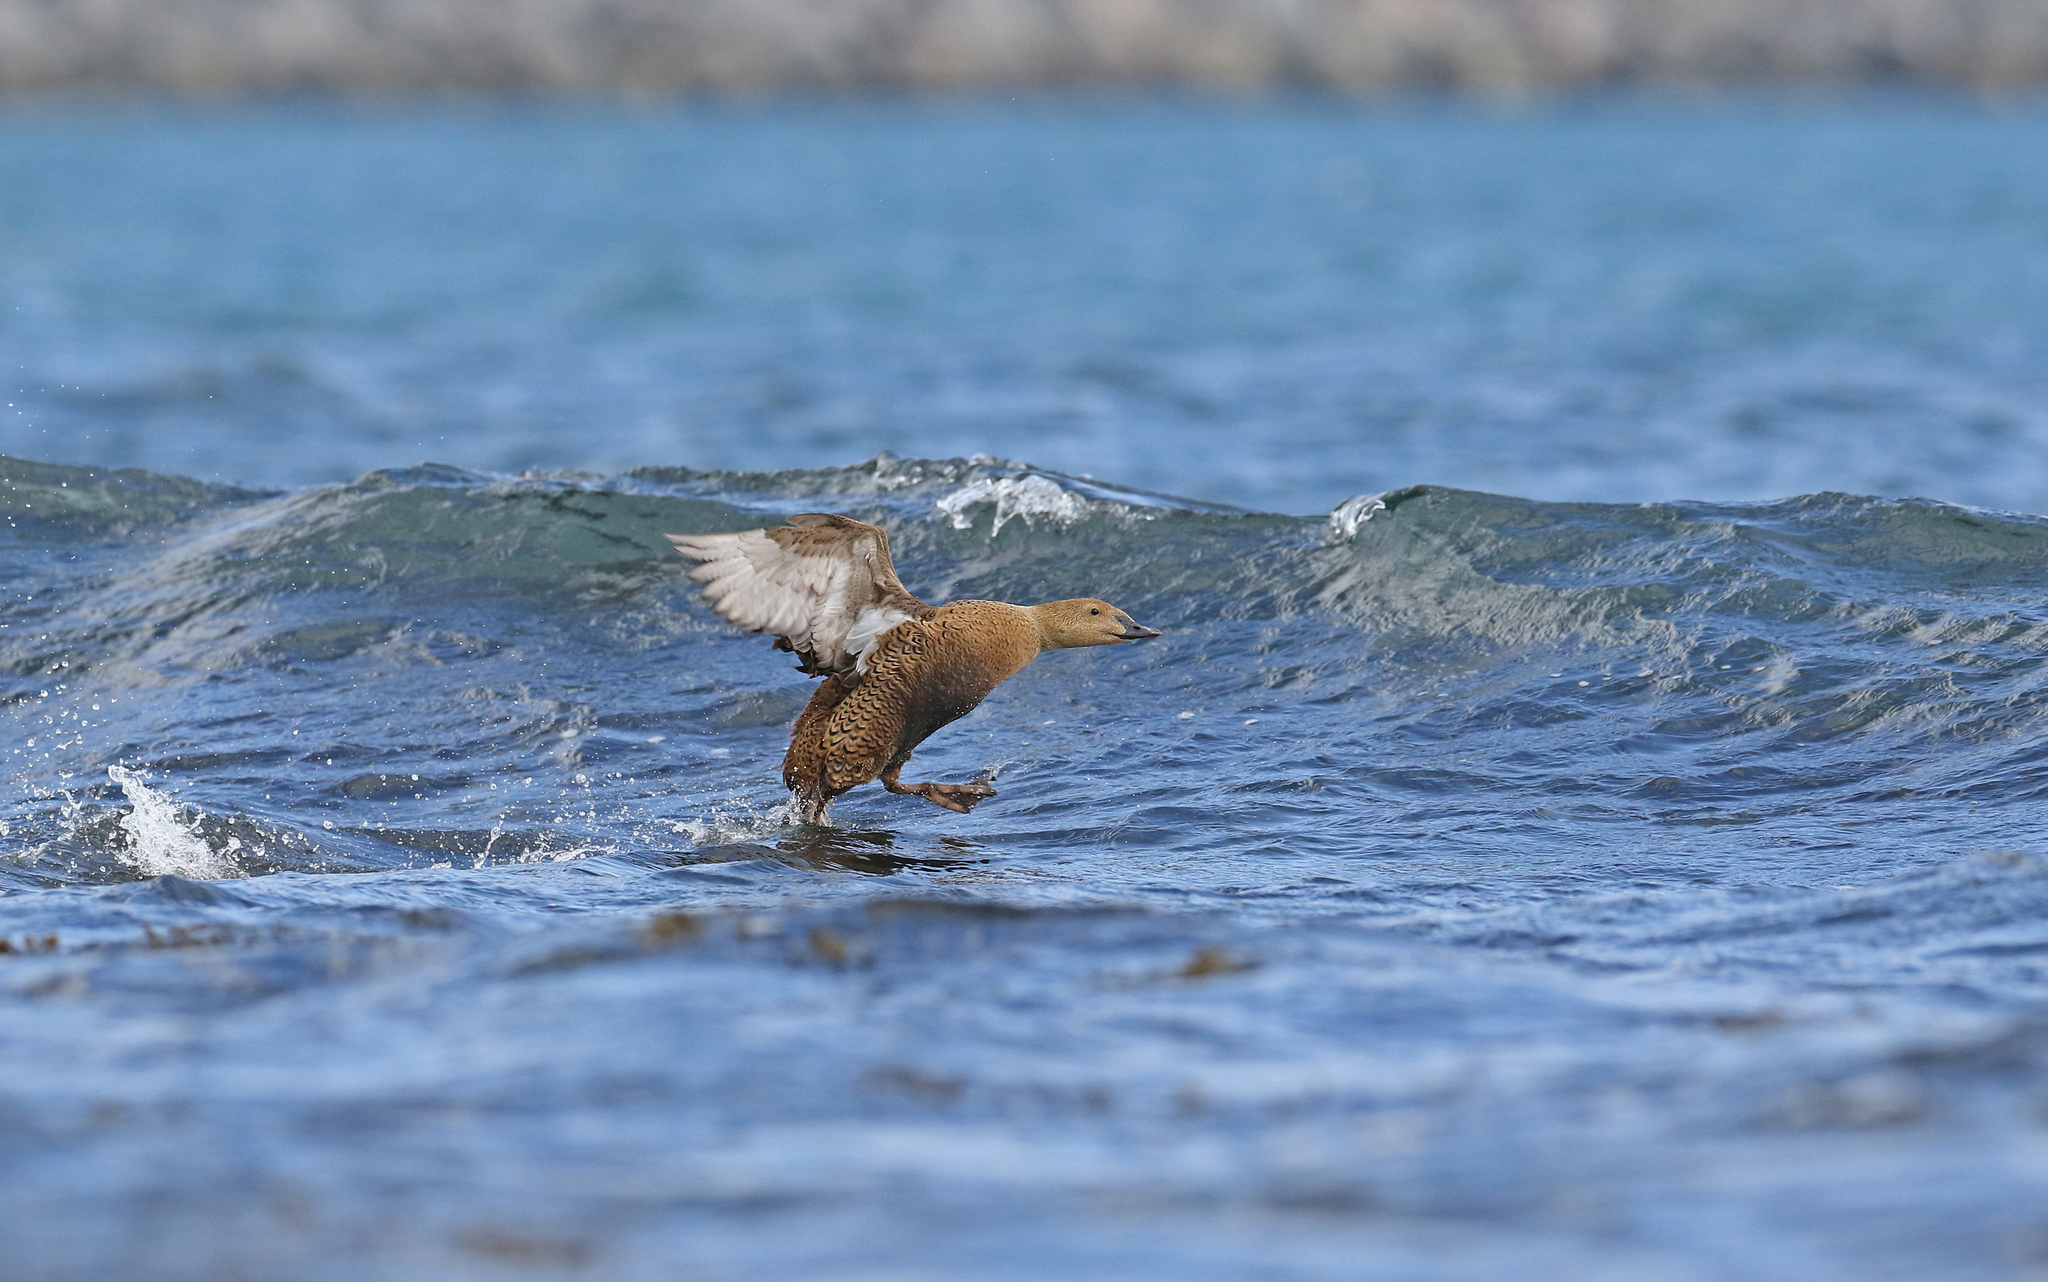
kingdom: Animalia
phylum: Chordata
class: Aves
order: Anseriformes
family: Anatidae
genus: Somateria
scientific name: Somateria spectabilis
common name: King eider
